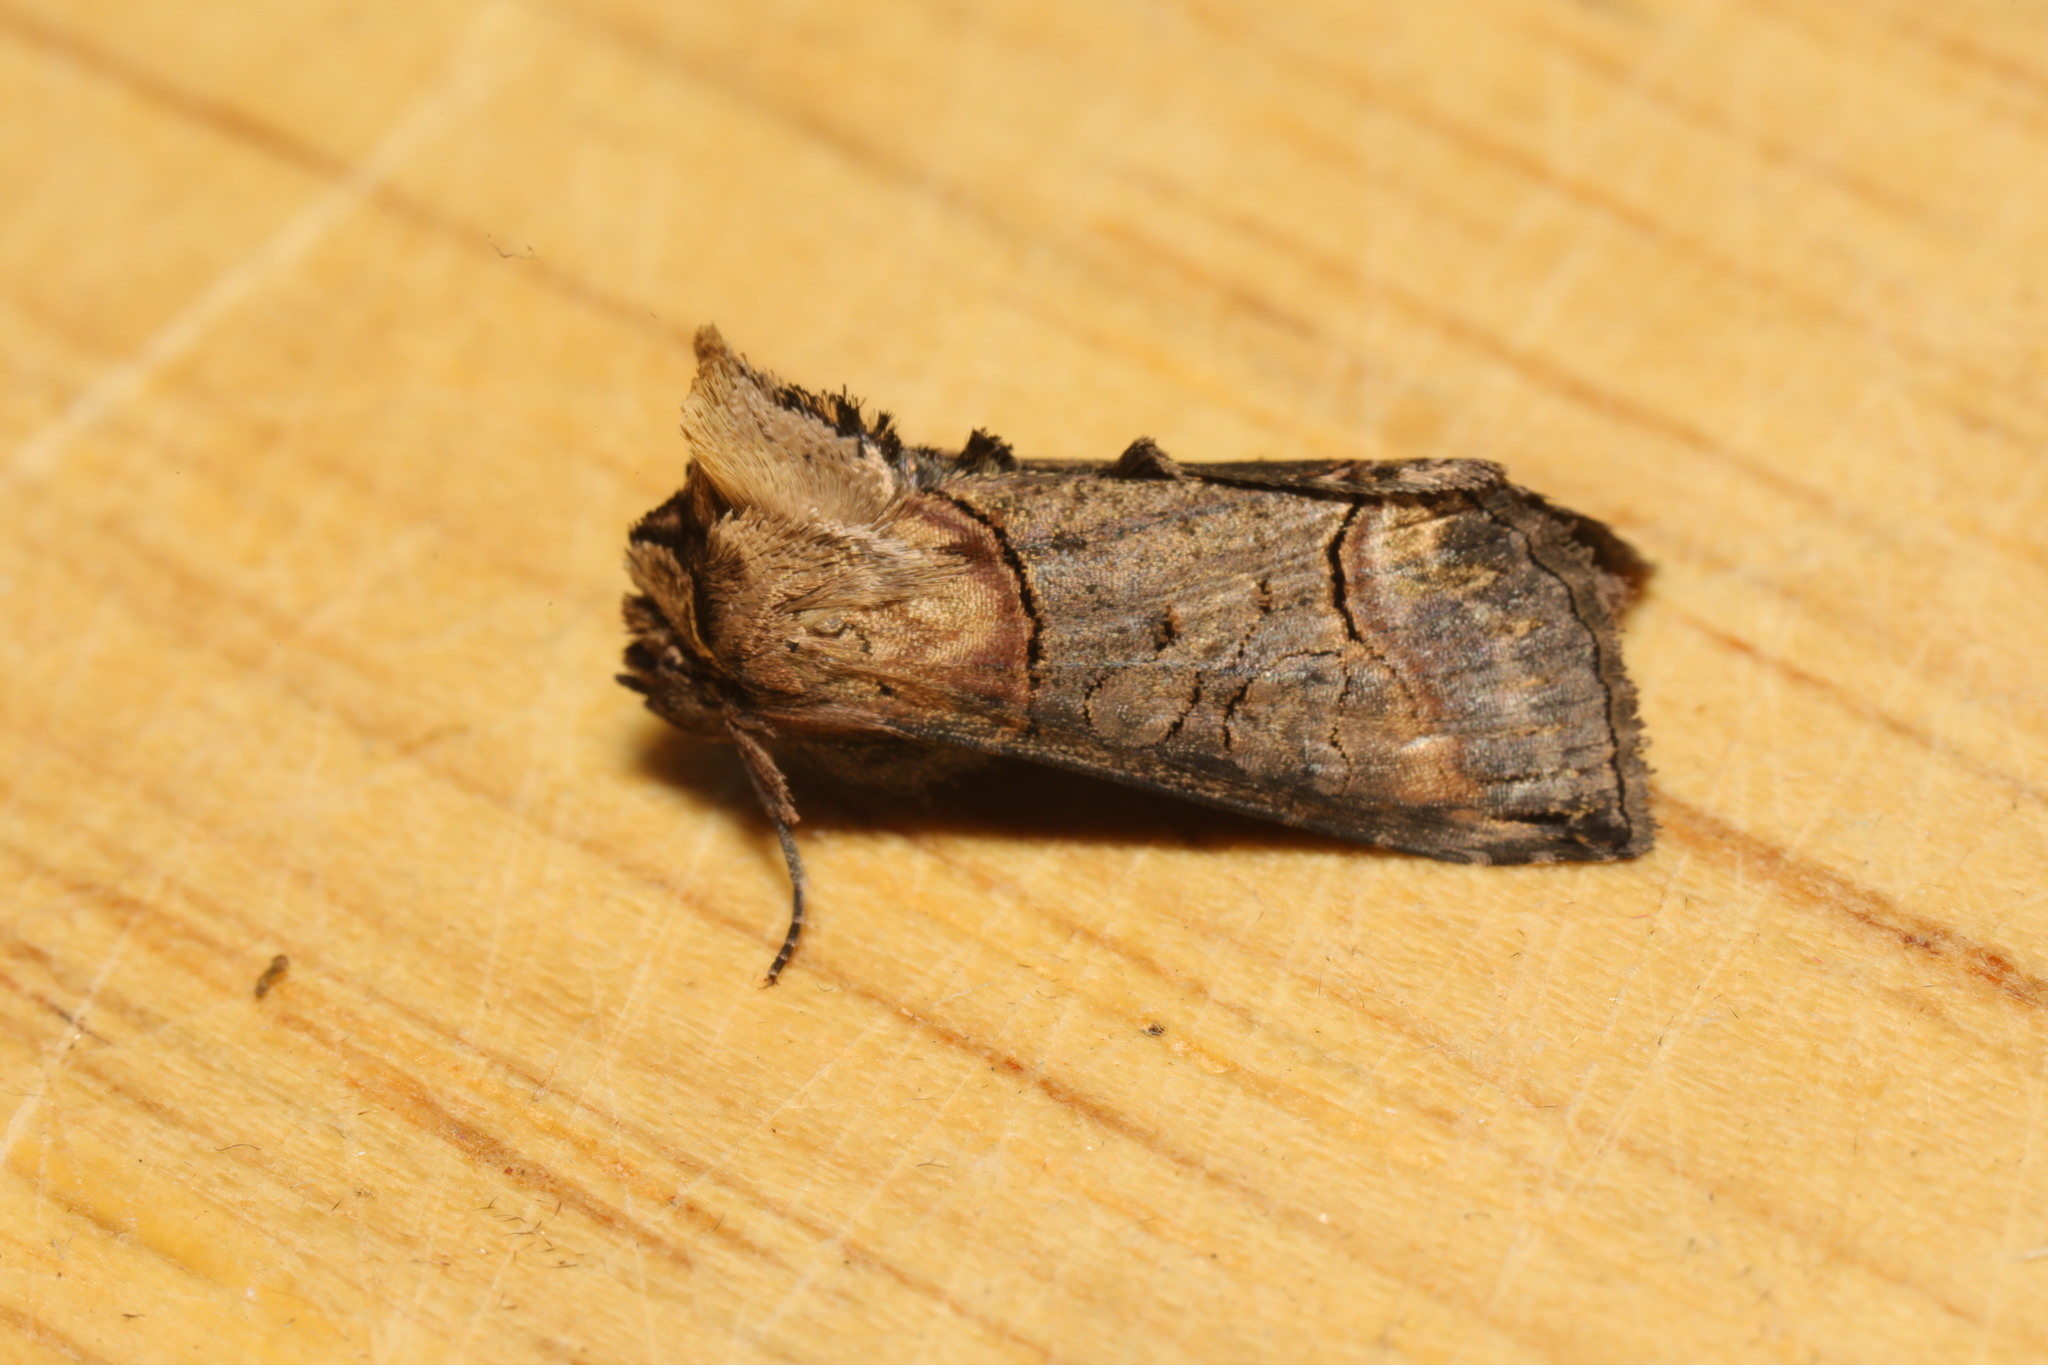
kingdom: Animalia
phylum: Arthropoda
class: Insecta
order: Lepidoptera
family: Noctuidae
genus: Abrostola
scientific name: Abrostola tripartita
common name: Spectacle
